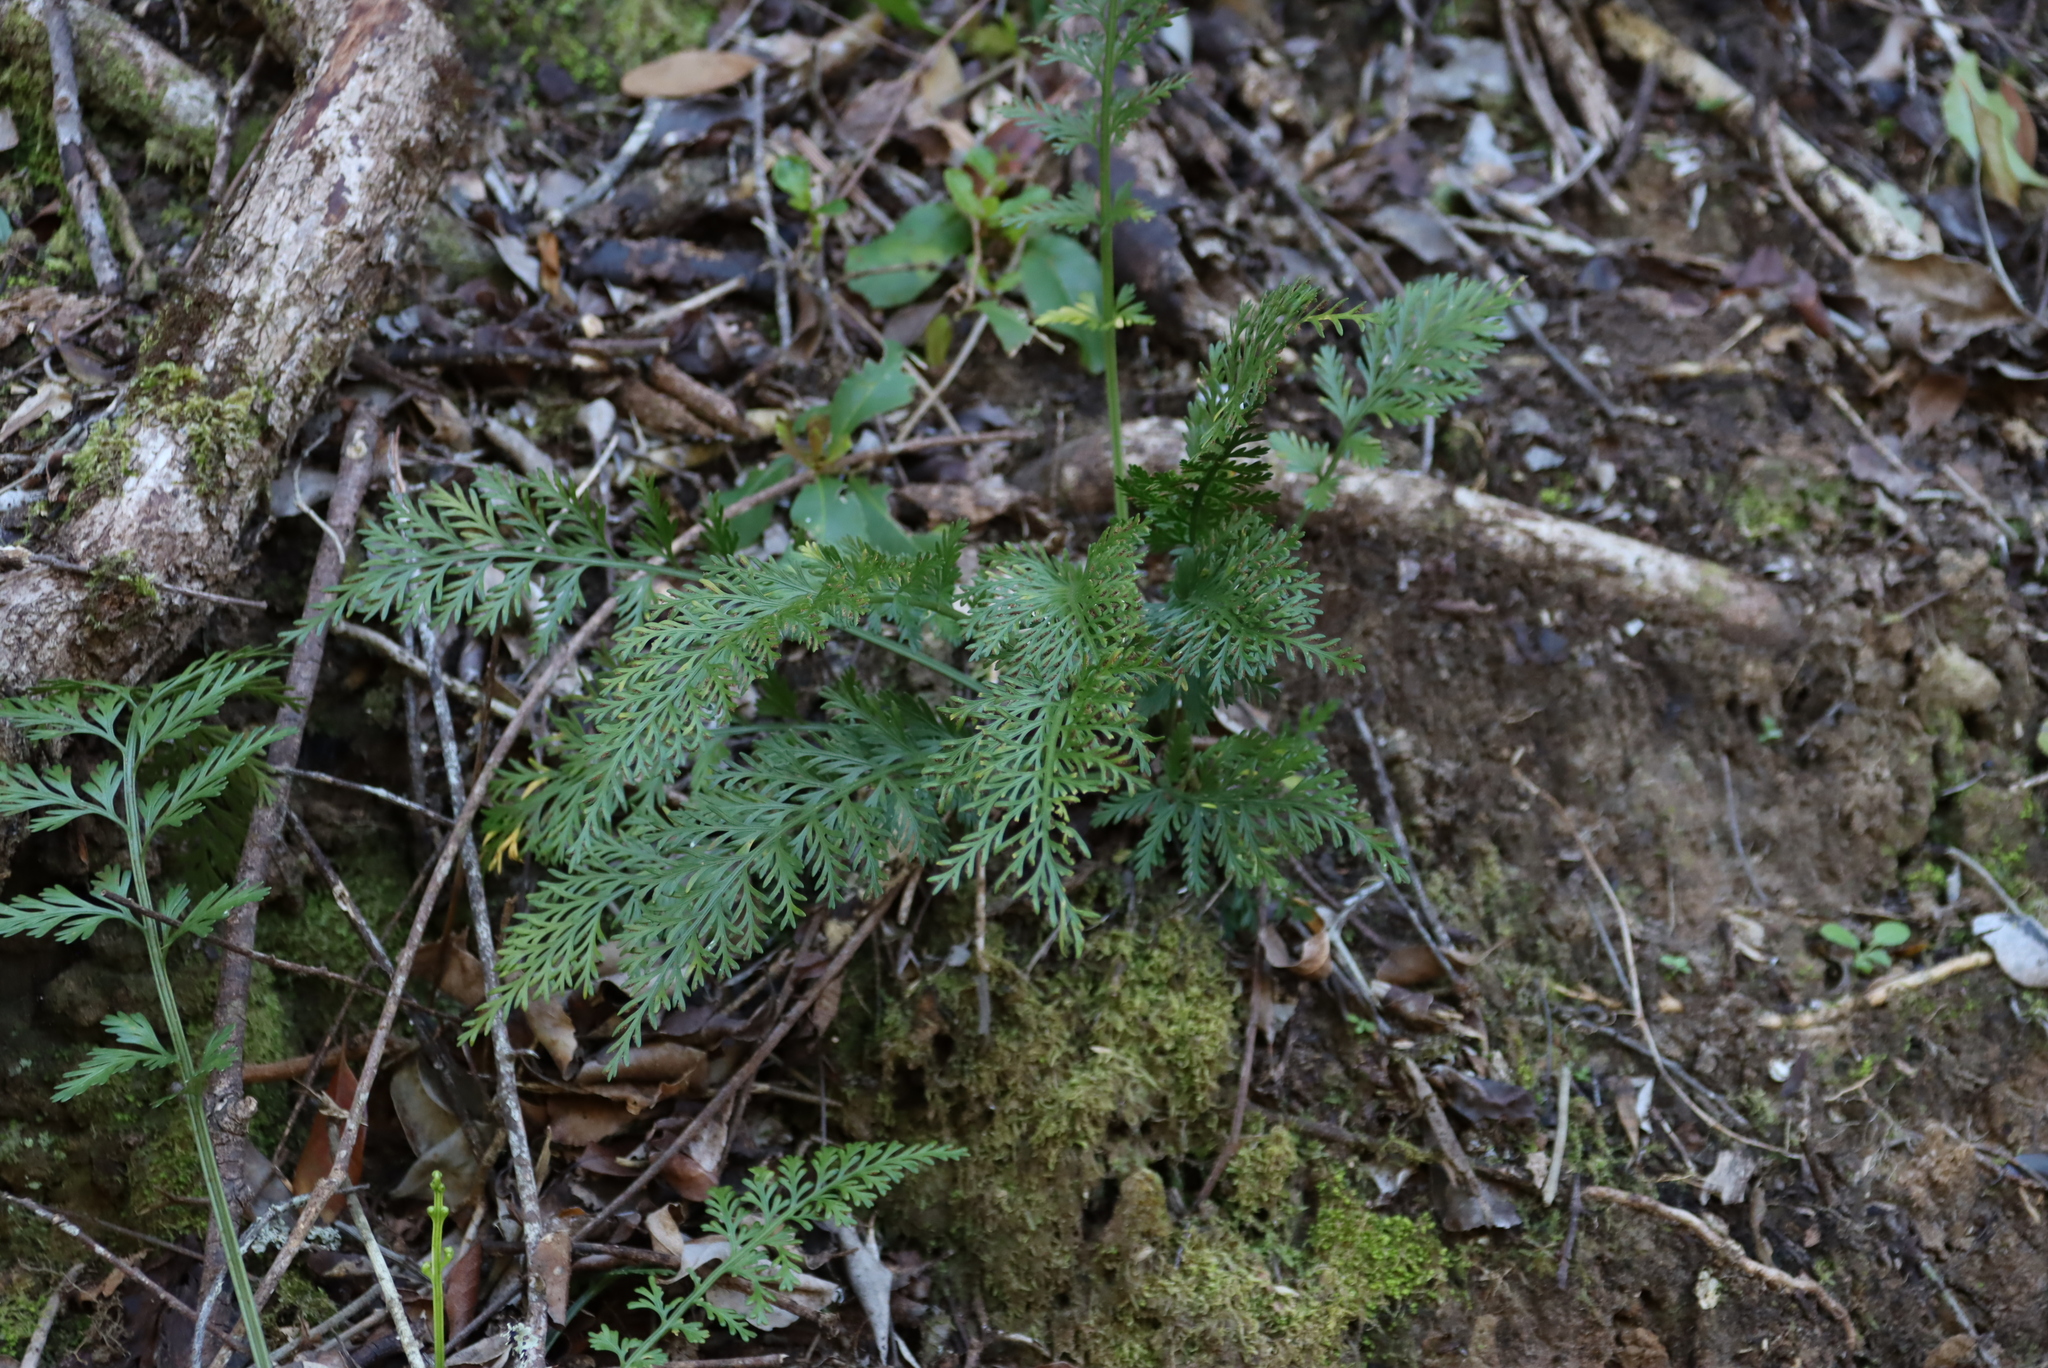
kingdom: Plantae
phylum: Tracheophyta
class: Polypodiopsida
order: Polypodiales
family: Aspleniaceae
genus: Asplenium
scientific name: Asplenium rutifolium
